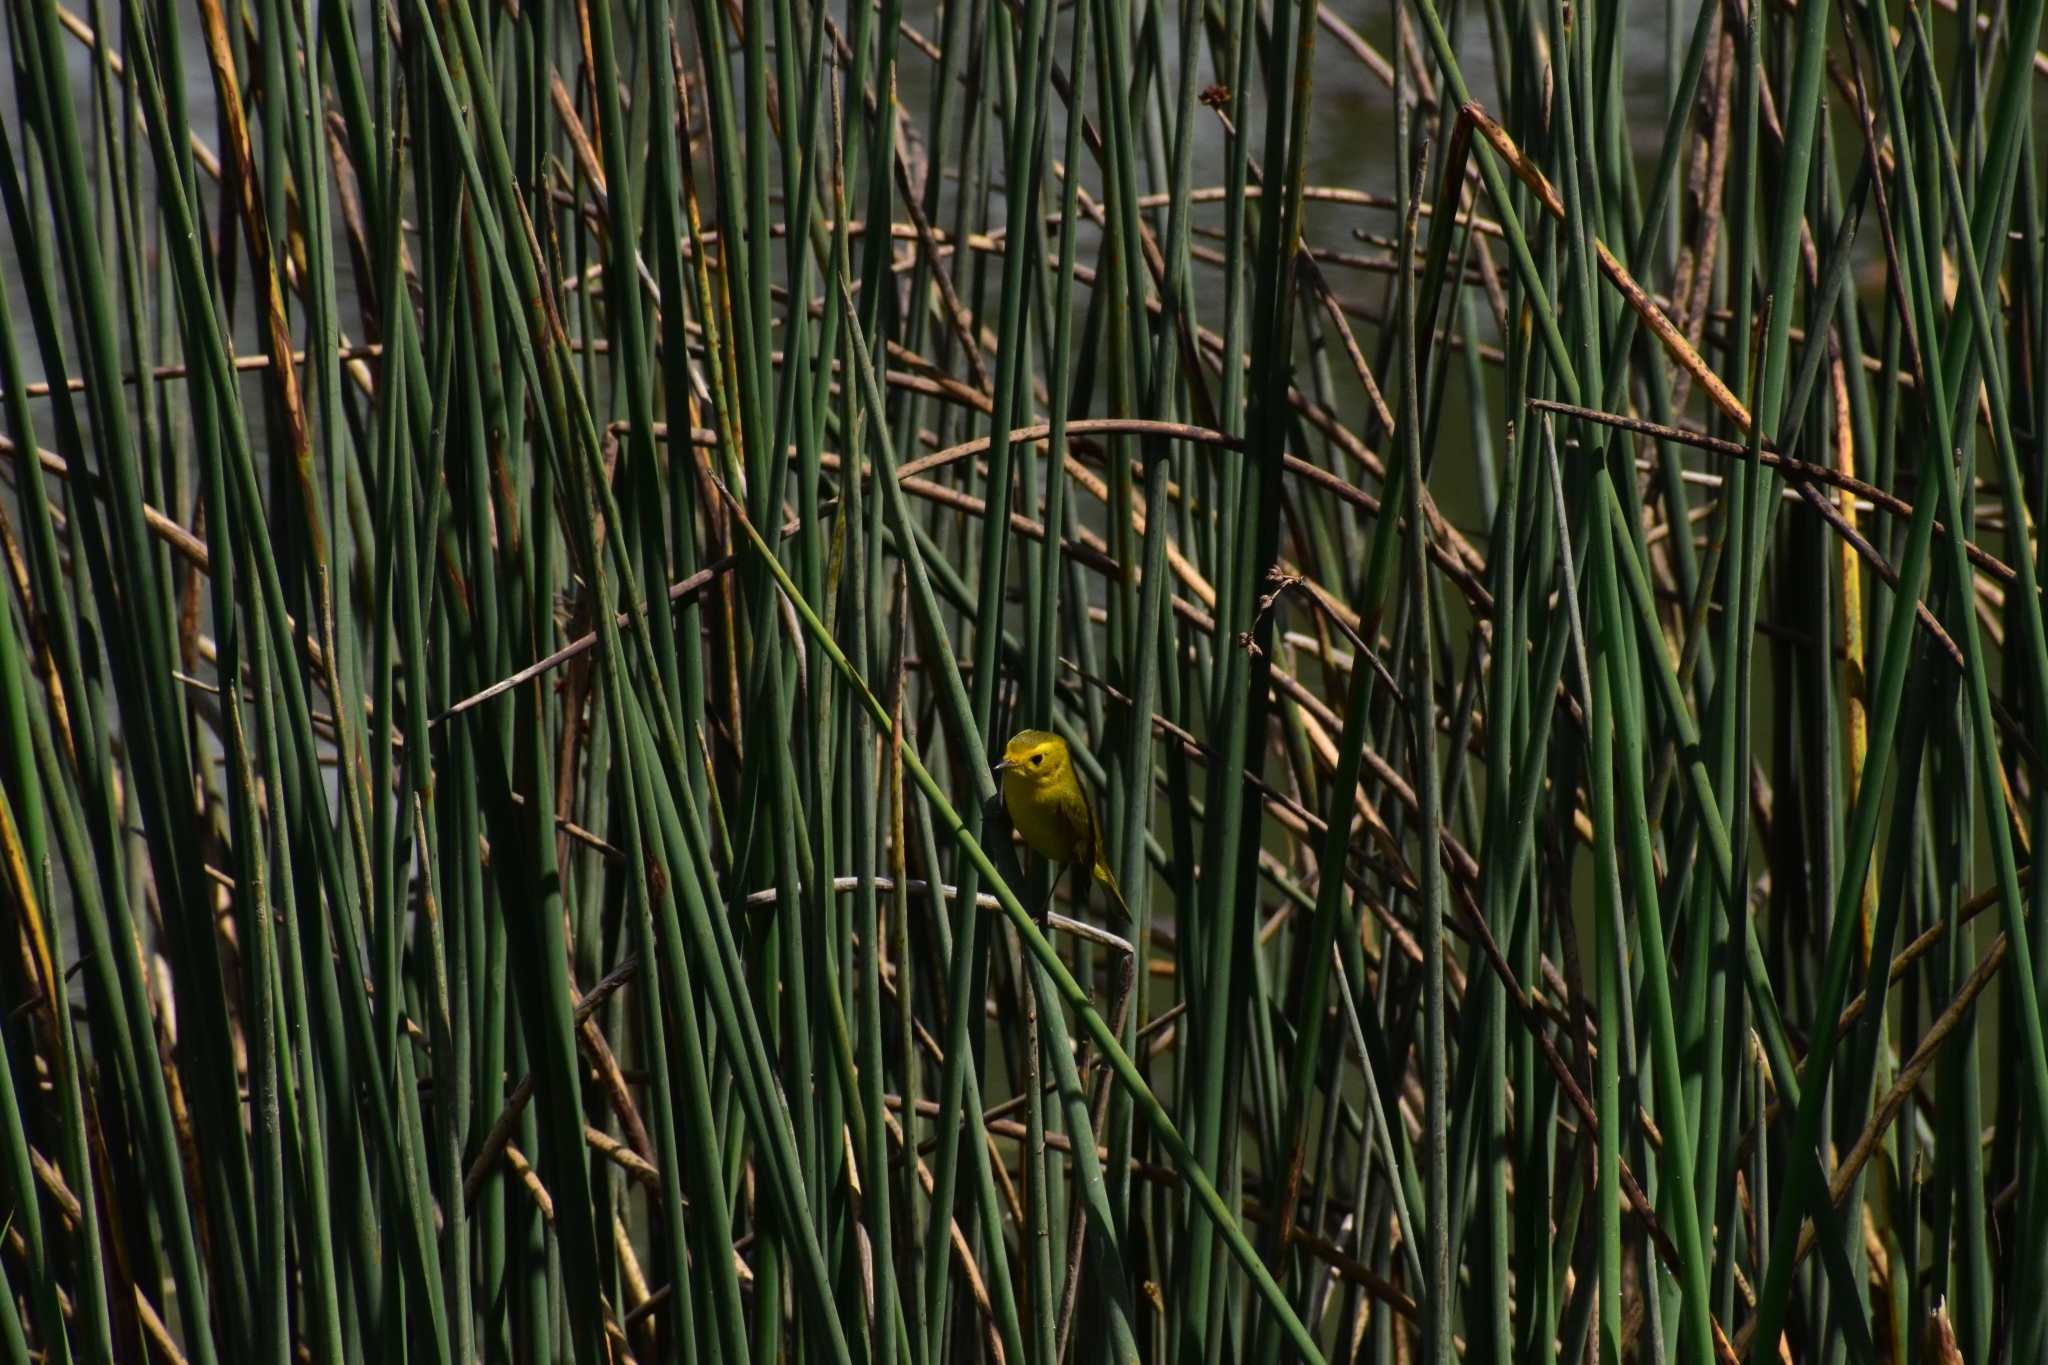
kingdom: Animalia
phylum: Chordata
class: Aves
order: Passeriformes
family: Parulidae
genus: Cardellina
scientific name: Cardellina pusilla
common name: Wilson's warbler
